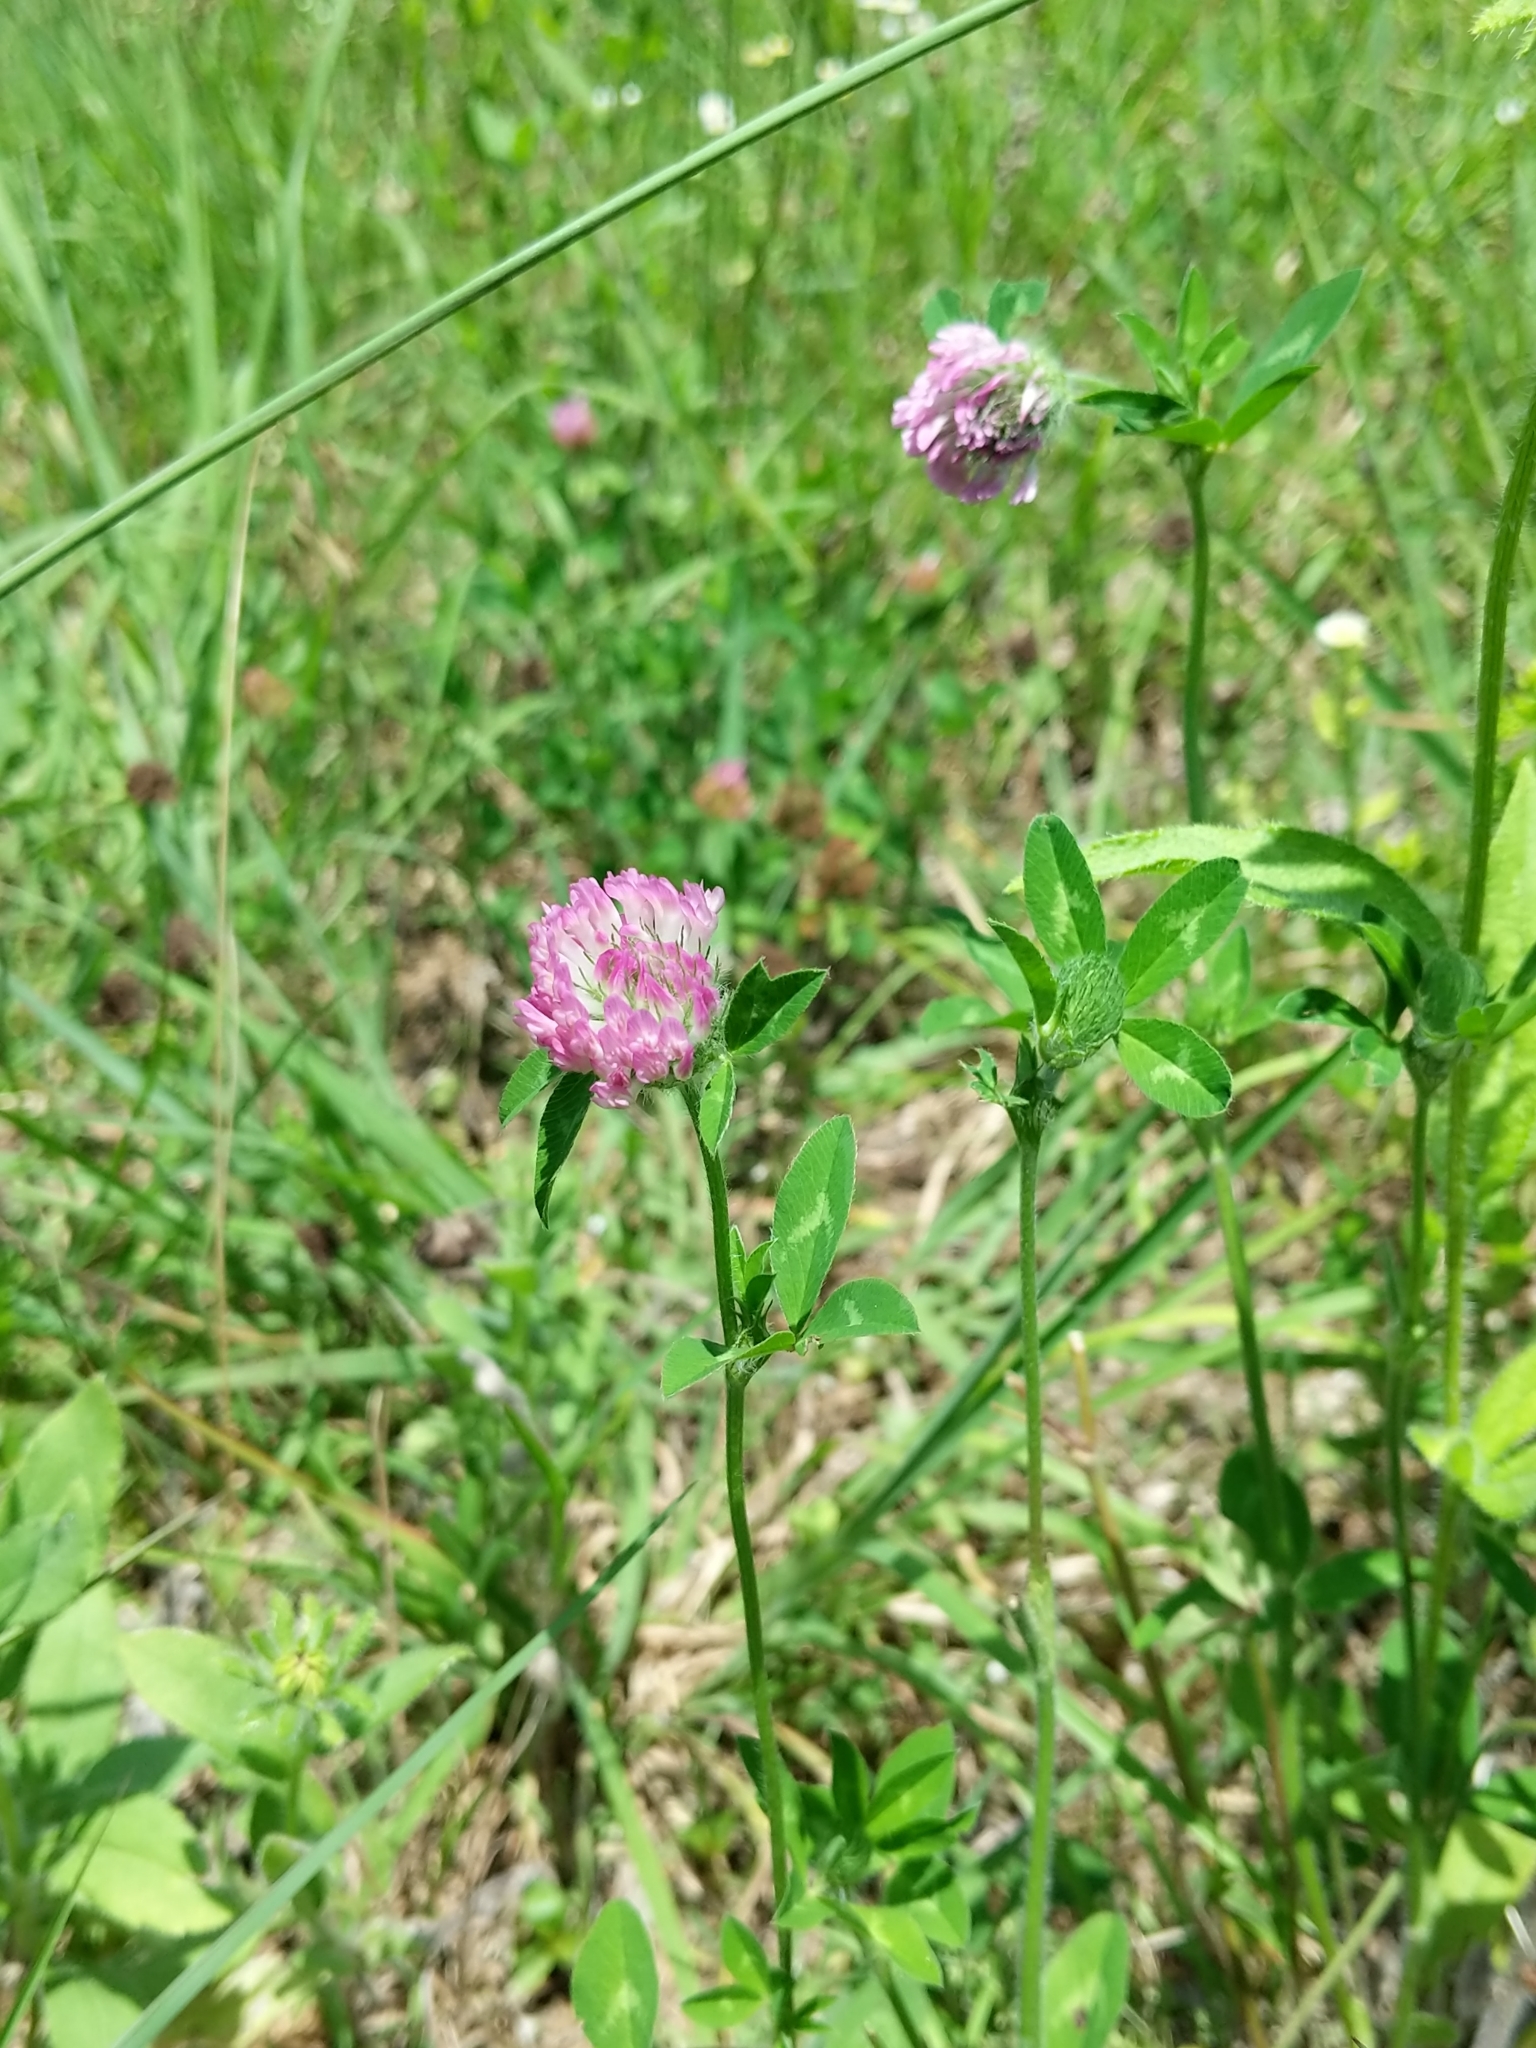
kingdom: Plantae
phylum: Tracheophyta
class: Magnoliopsida
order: Fabales
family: Fabaceae
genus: Trifolium
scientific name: Trifolium pratense
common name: Red clover
